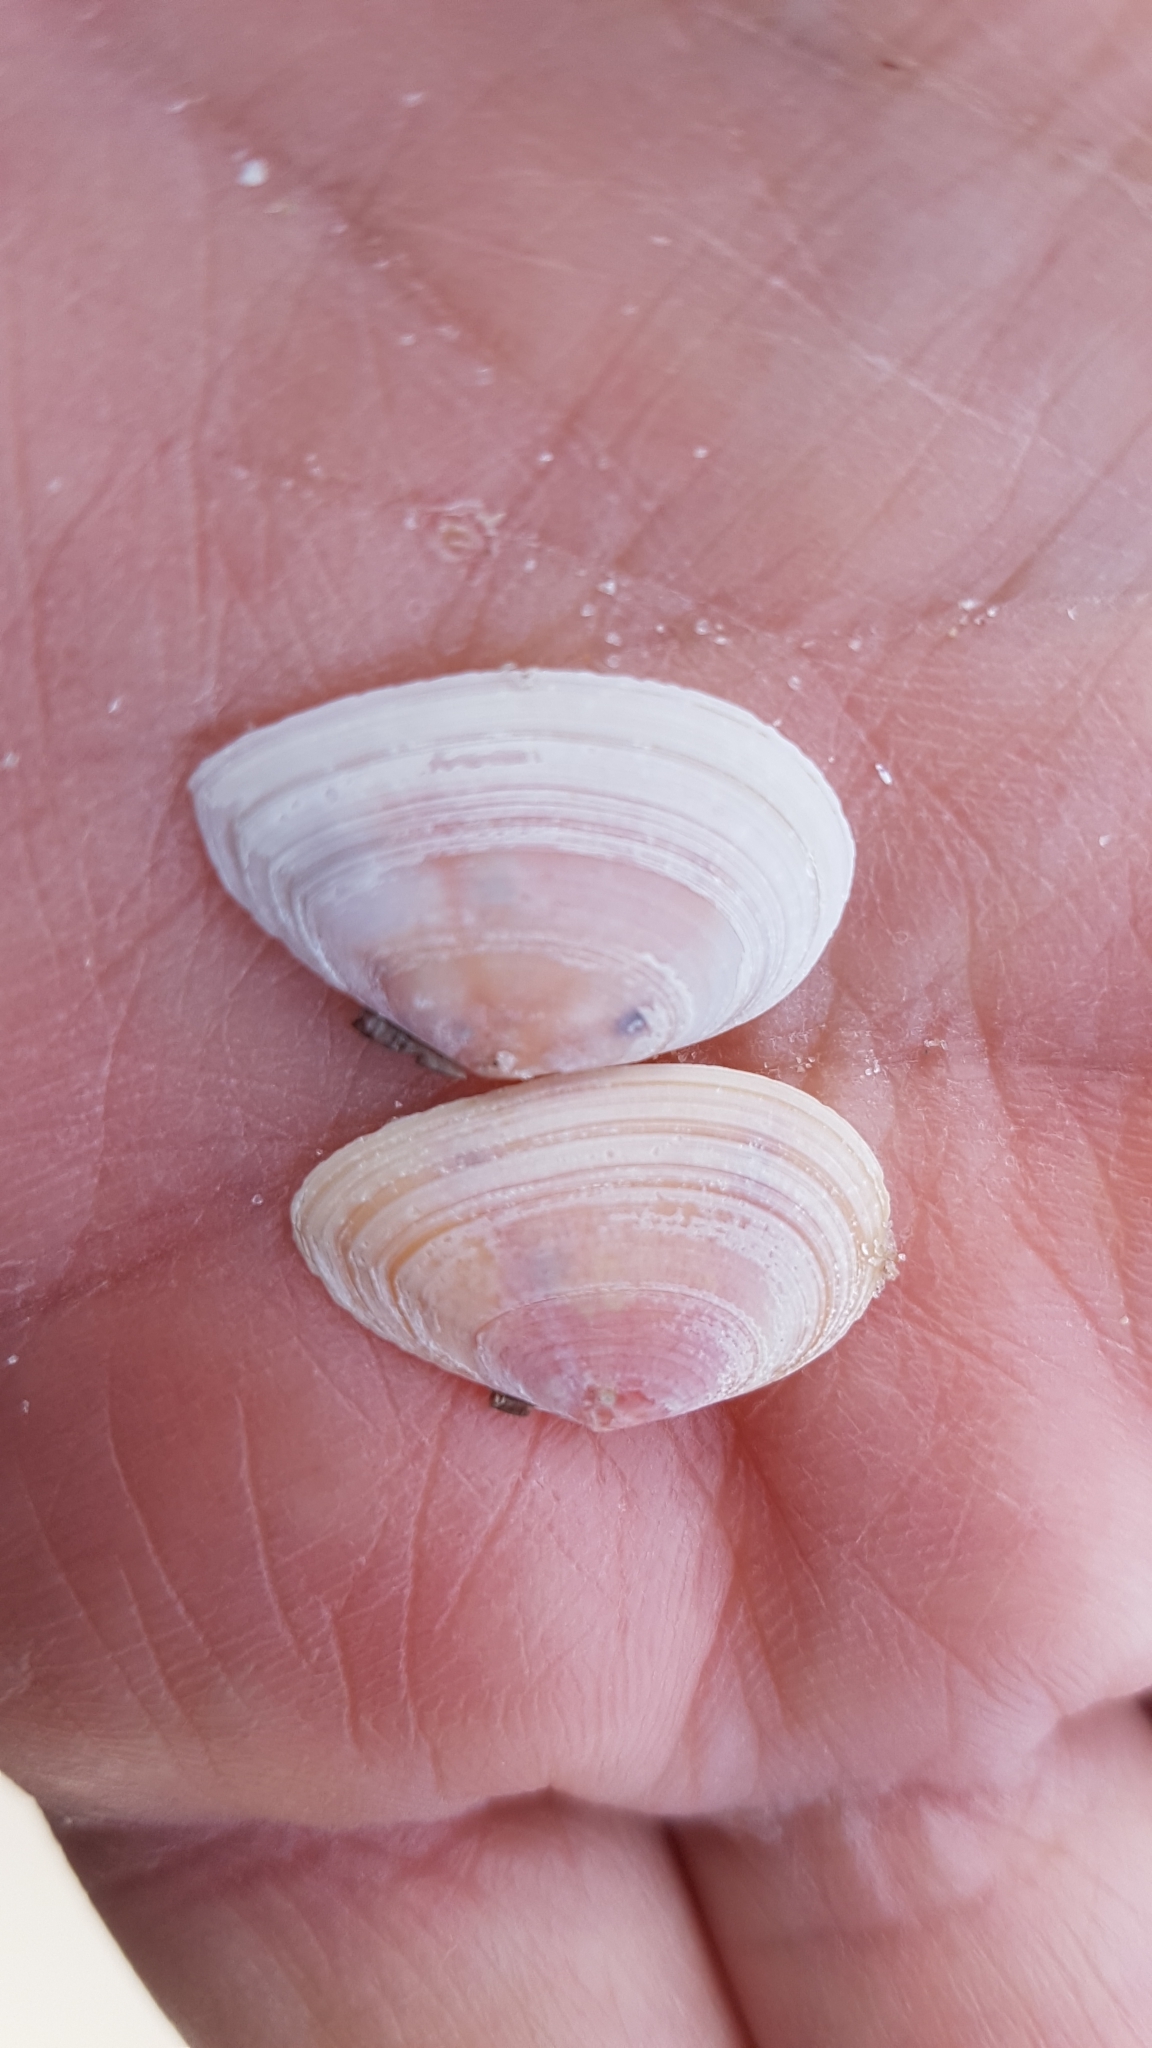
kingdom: Animalia
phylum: Mollusca
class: Bivalvia
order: Cardiida
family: Tellinidae
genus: Macomangulus
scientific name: Macomangulus tenuis
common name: Thin tellin
